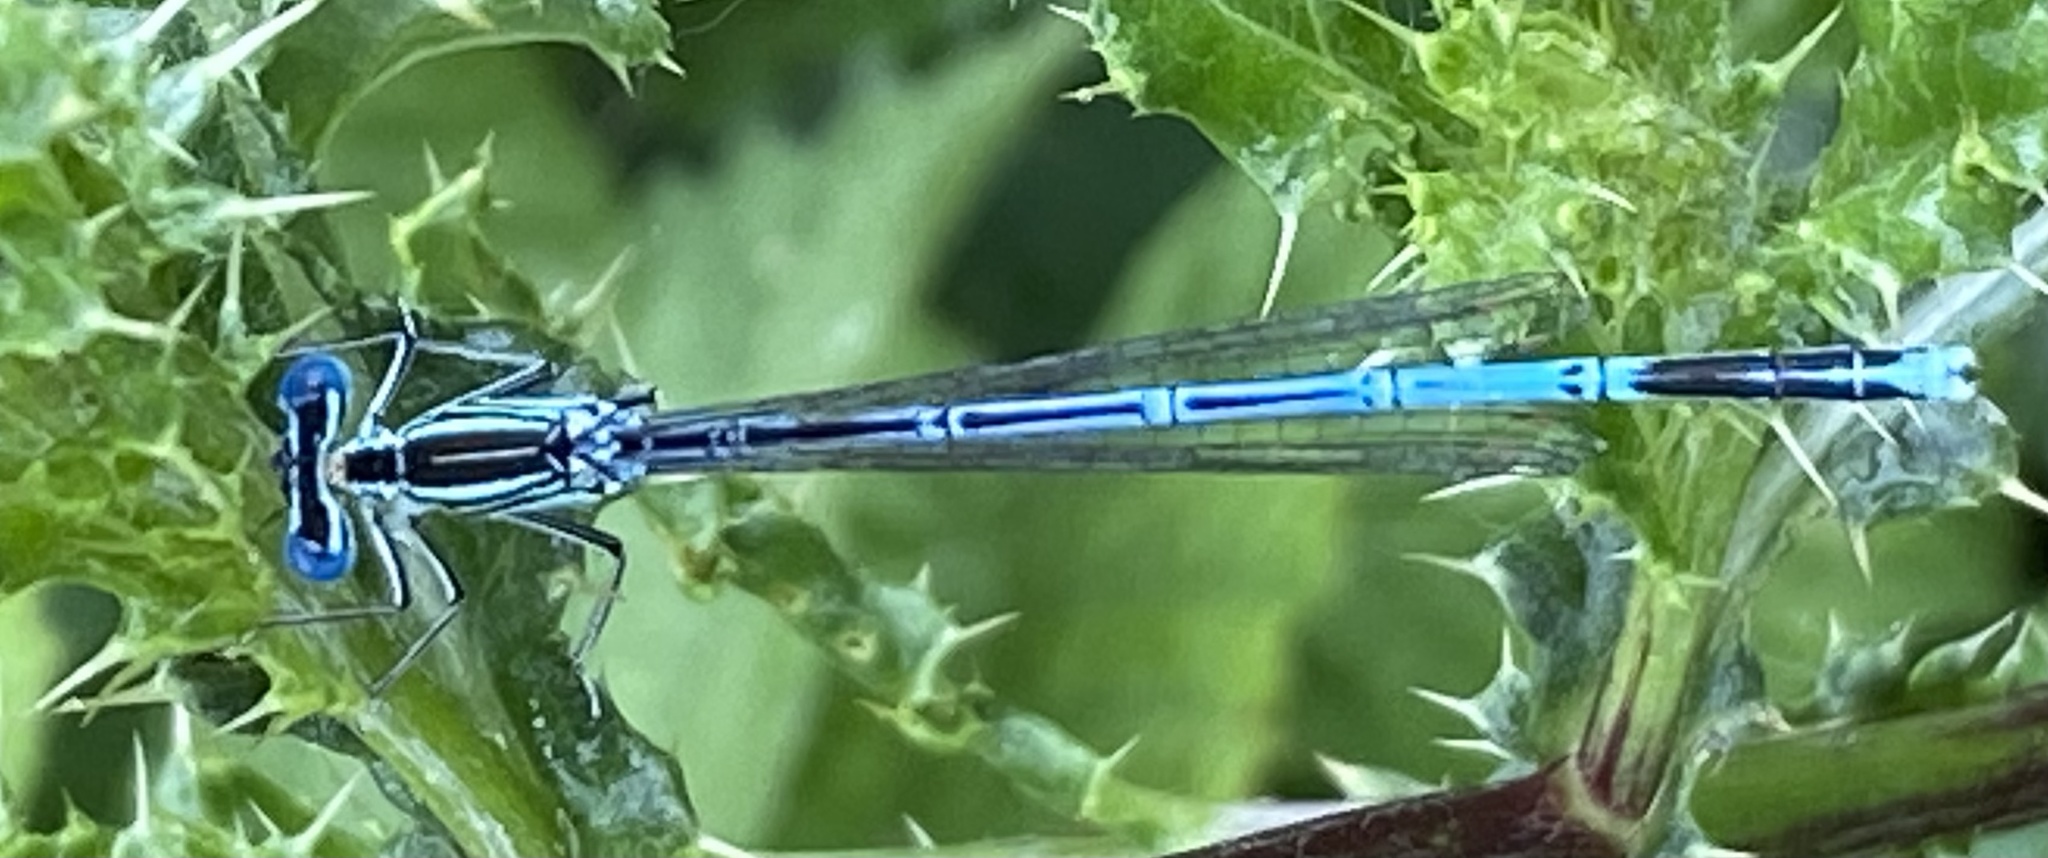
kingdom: Animalia
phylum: Arthropoda
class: Insecta
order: Odonata
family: Platycnemididae
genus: Platycnemis
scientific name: Platycnemis pennipes
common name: White-legged damselfly
